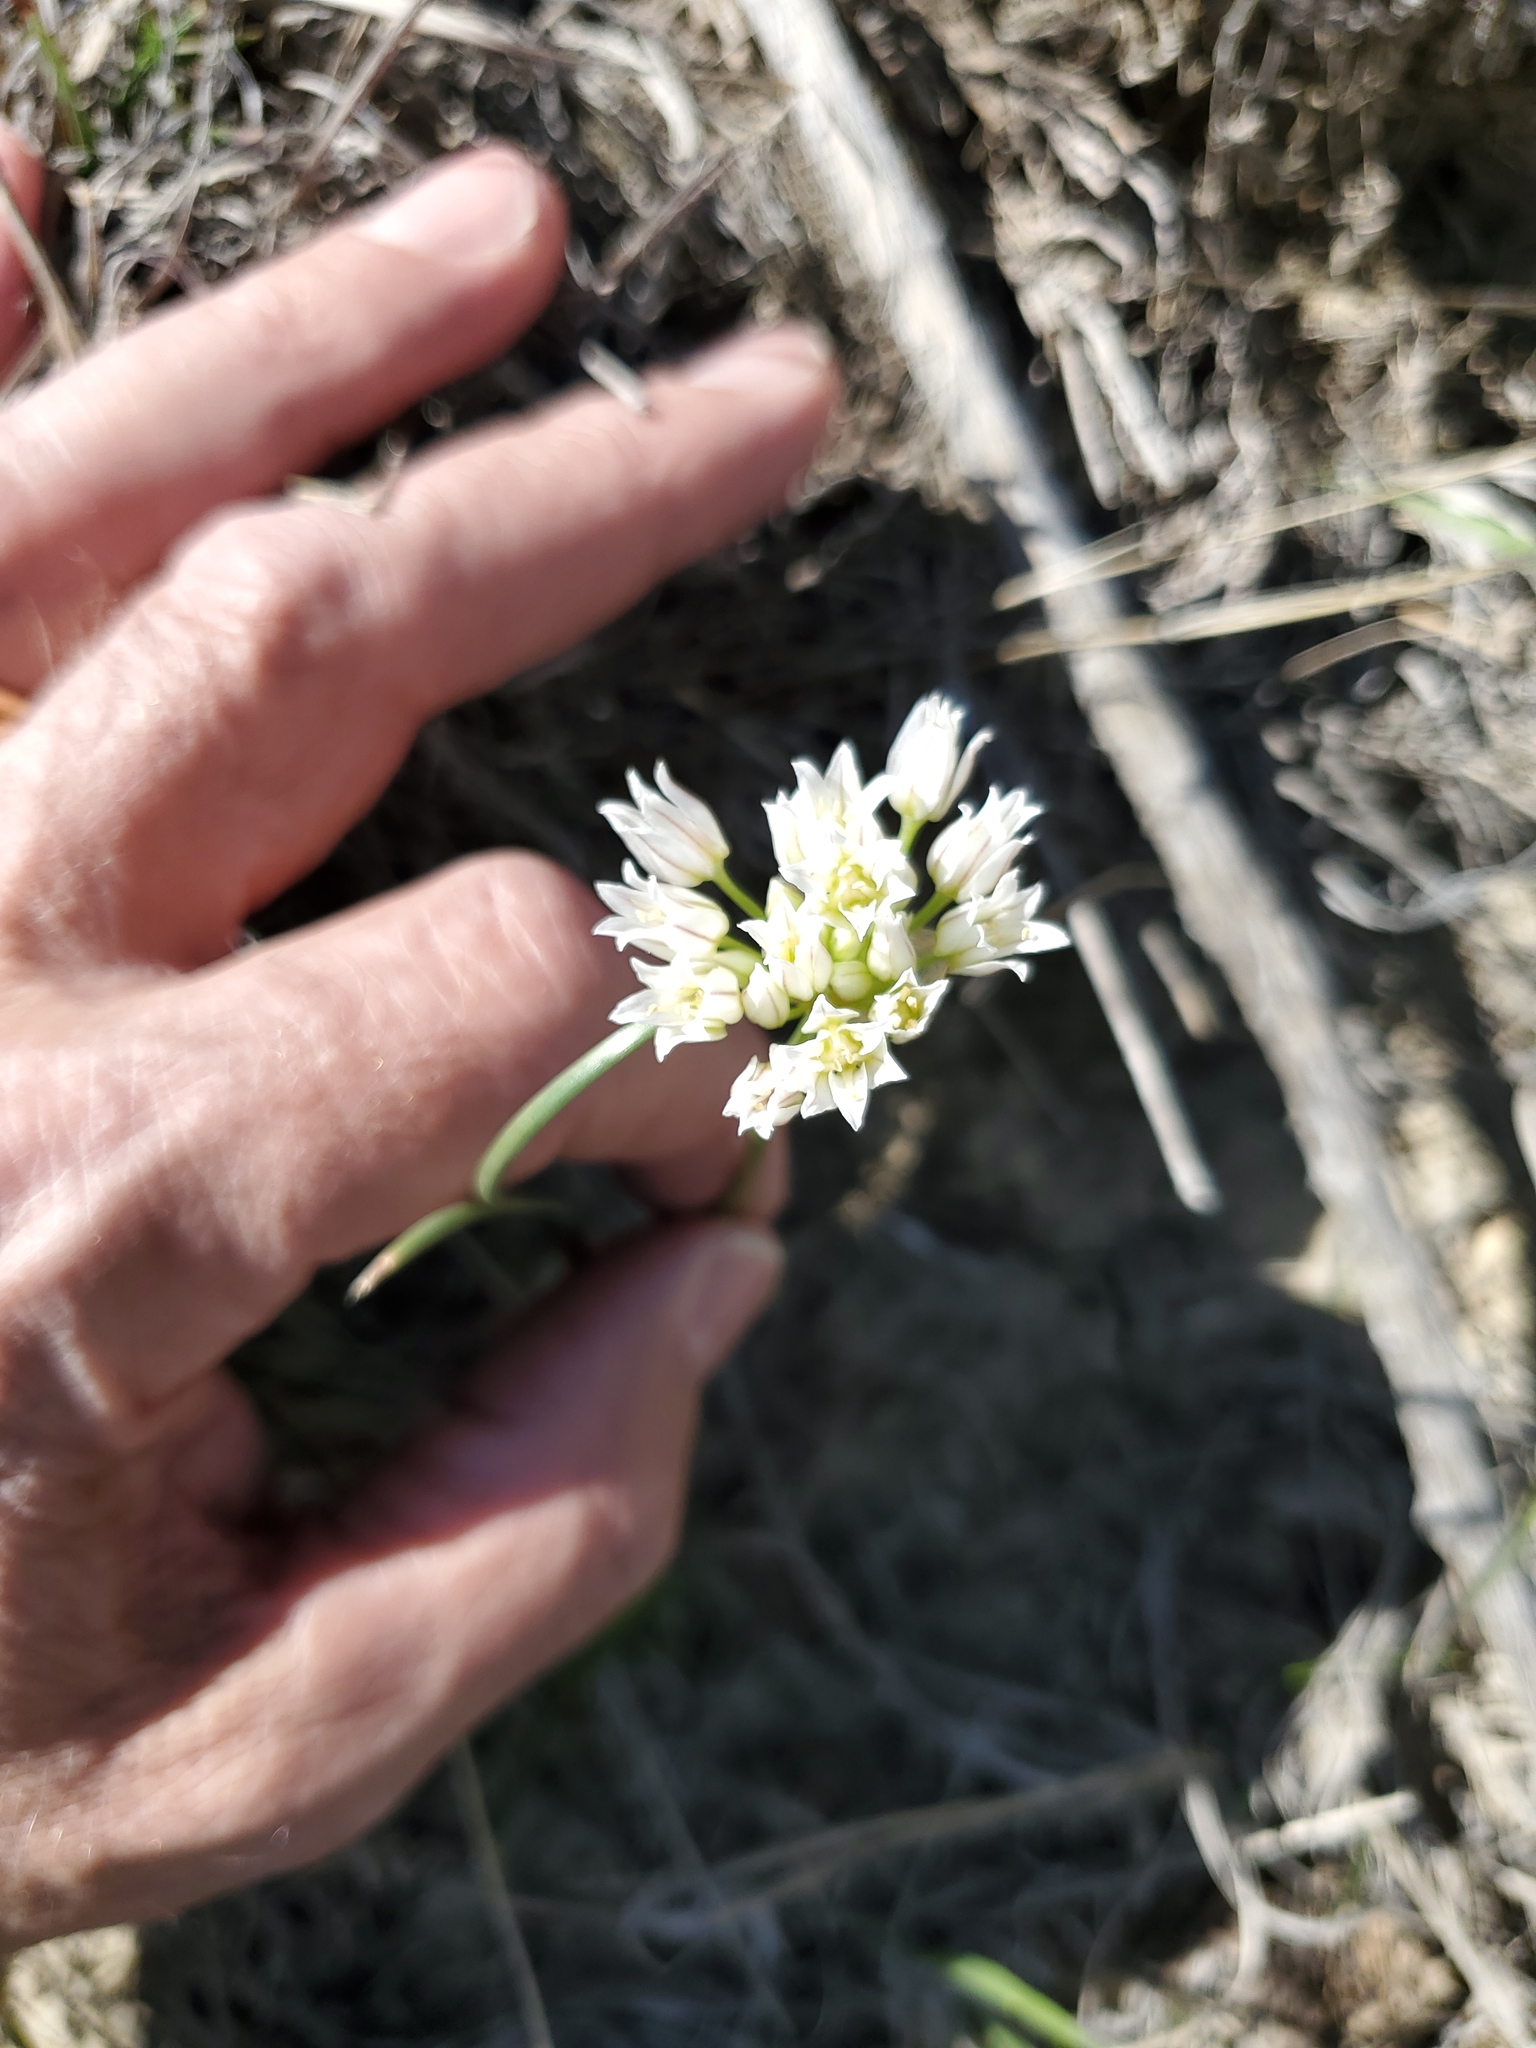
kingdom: Plantae
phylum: Tracheophyta
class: Liliopsida
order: Asparagales
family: Amaryllidaceae
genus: Allium
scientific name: Allium textile
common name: Prairie onion
